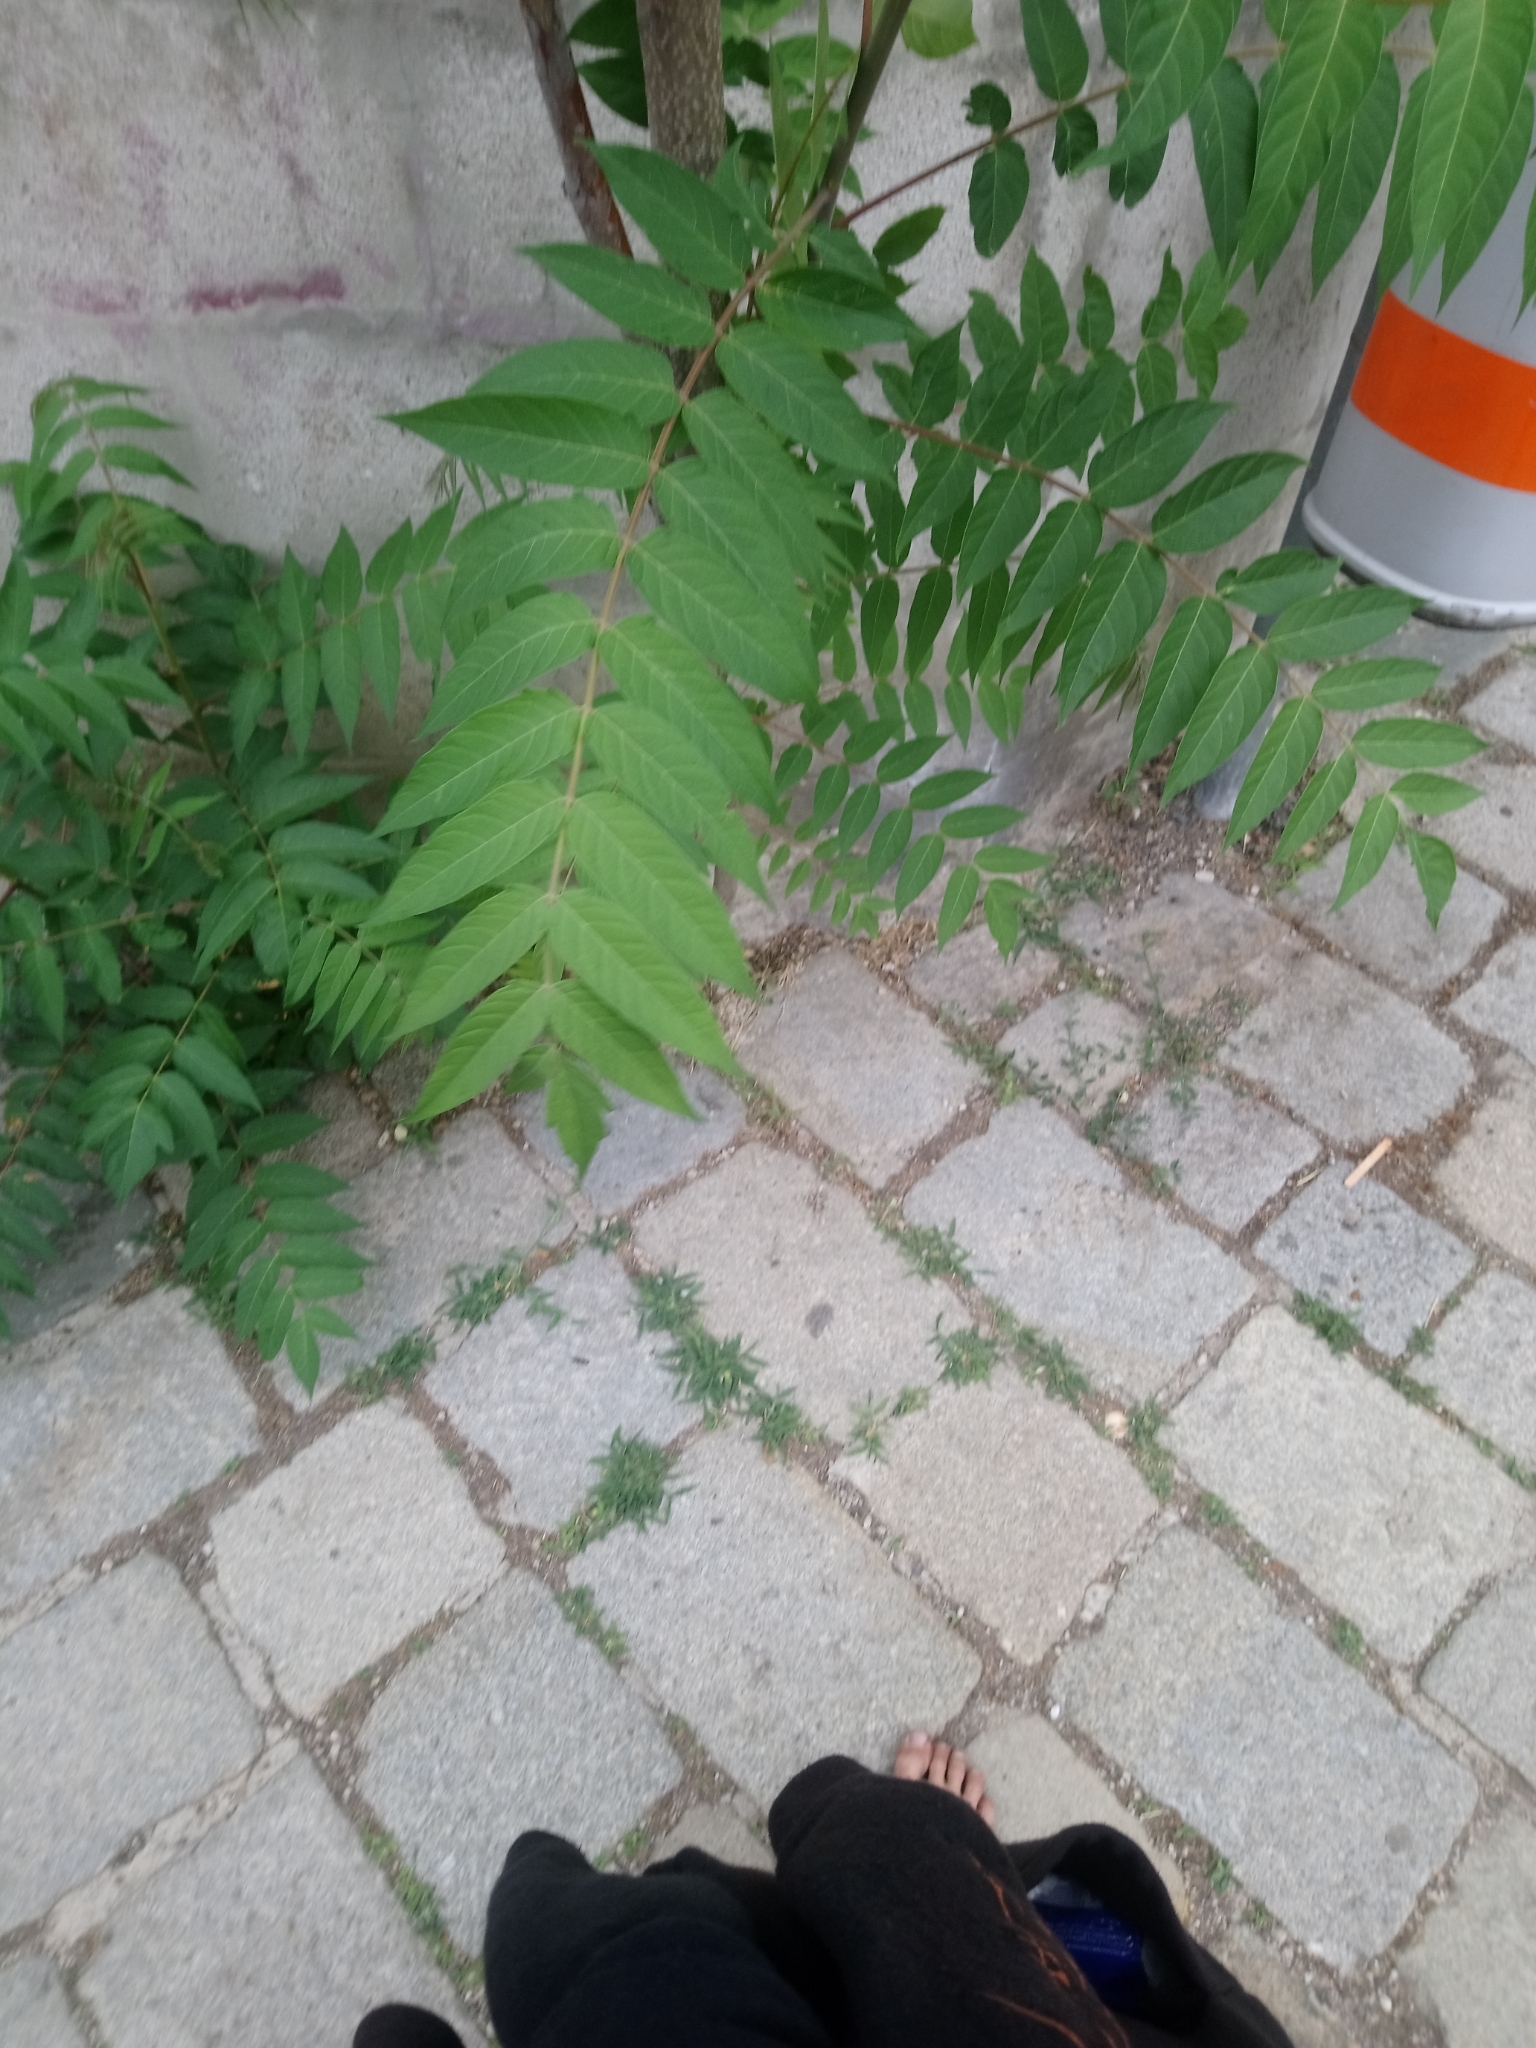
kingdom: Plantae
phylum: Tracheophyta
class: Magnoliopsida
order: Sapindales
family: Simaroubaceae
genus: Ailanthus
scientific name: Ailanthus altissima
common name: Tree-of-heaven
